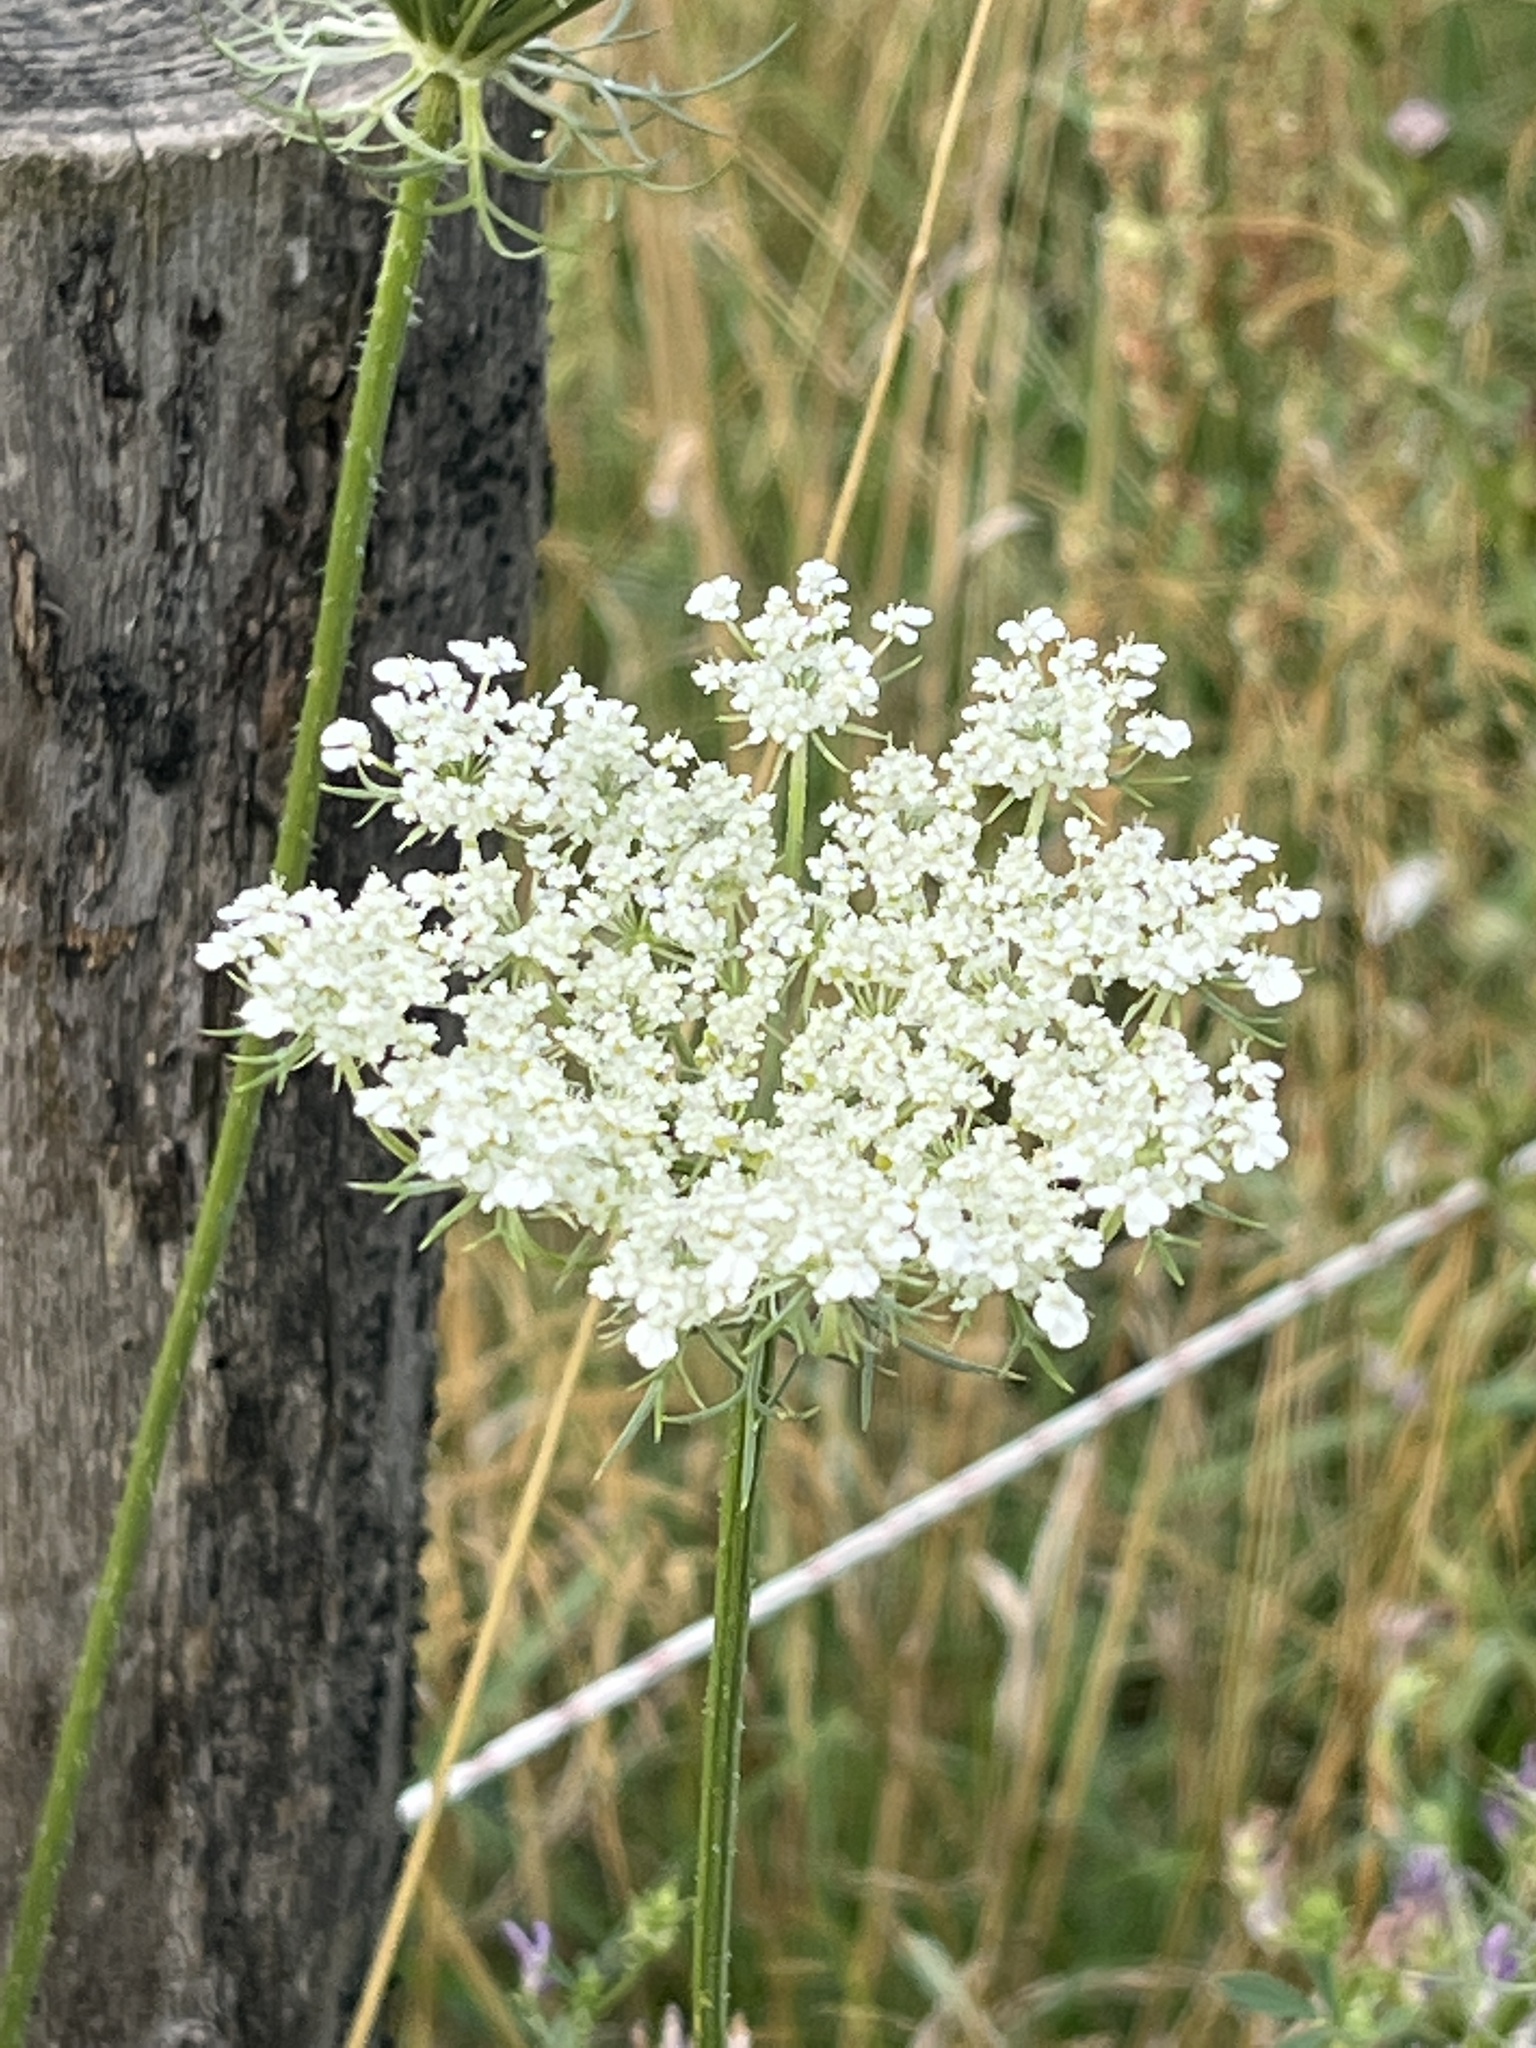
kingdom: Plantae
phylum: Tracheophyta
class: Magnoliopsida
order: Apiales
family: Apiaceae
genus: Daucus
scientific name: Daucus carota
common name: Wild carrot
